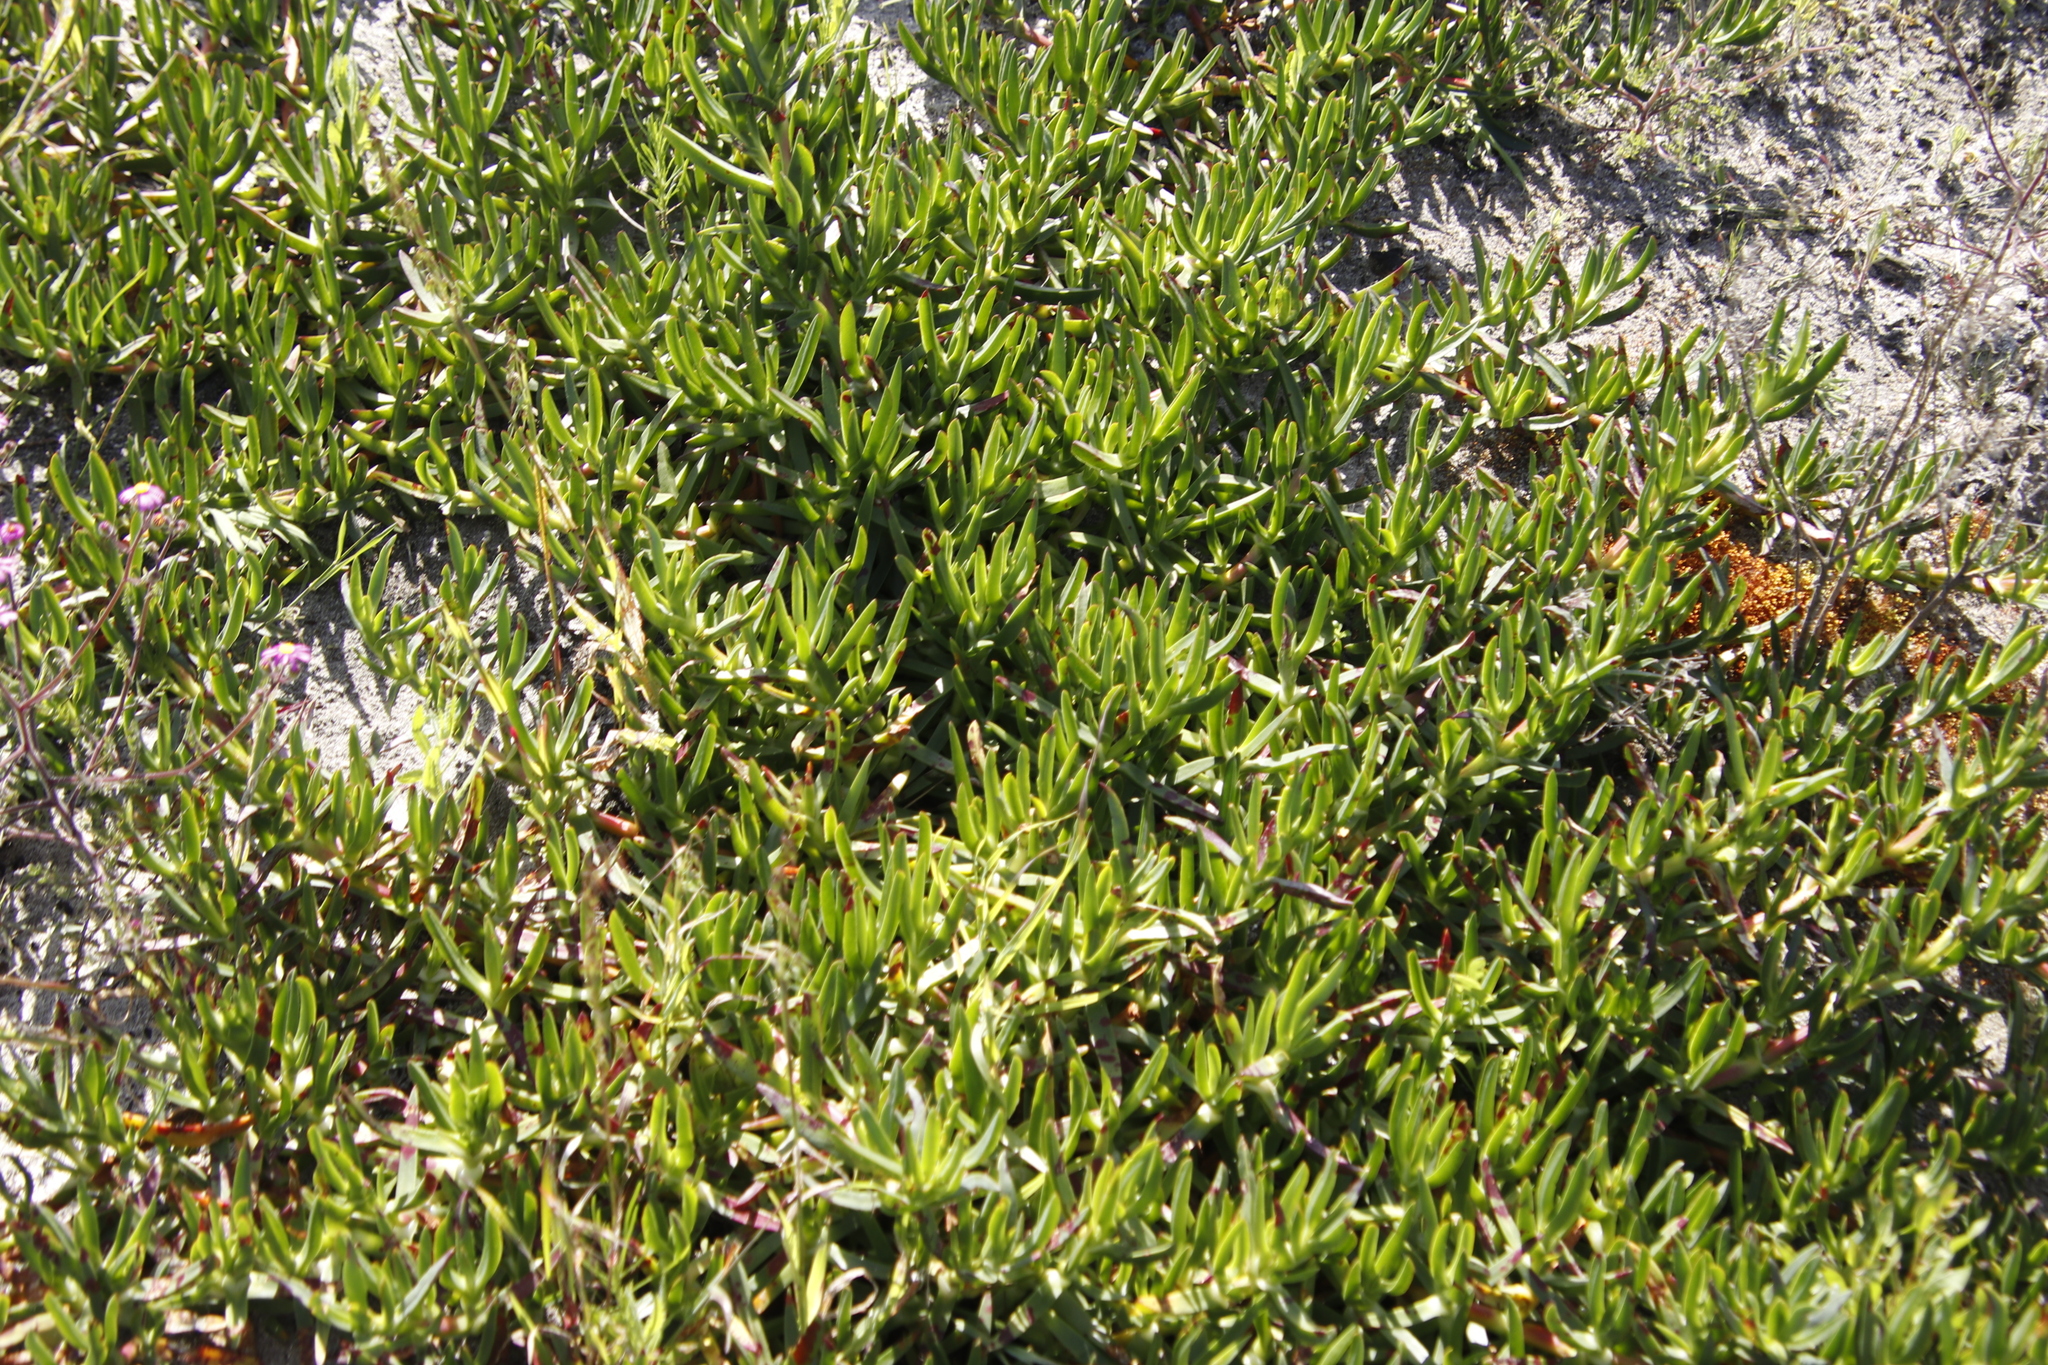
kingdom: Plantae
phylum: Tracheophyta
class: Magnoliopsida
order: Caryophyllales
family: Aizoaceae
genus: Carpobrotus
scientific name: Carpobrotus edulis
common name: Hottentot-fig
